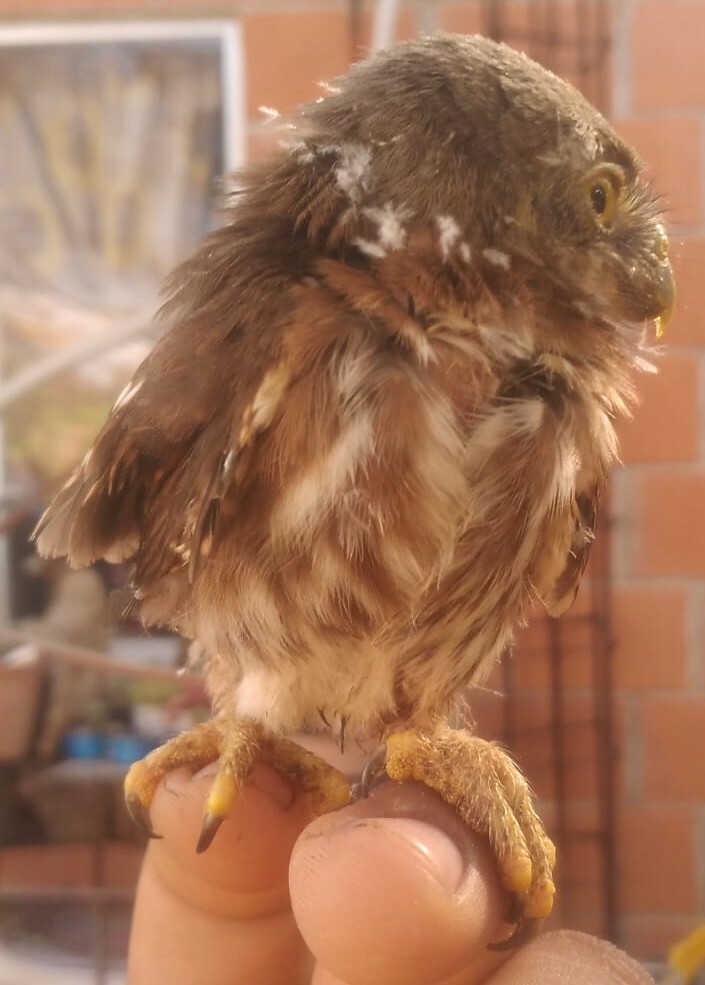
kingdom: Animalia
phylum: Chordata
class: Aves
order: Strigiformes
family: Strigidae
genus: Glaucidium
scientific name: Glaucidium brasilianum
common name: Ferruginous pygmy-owl
